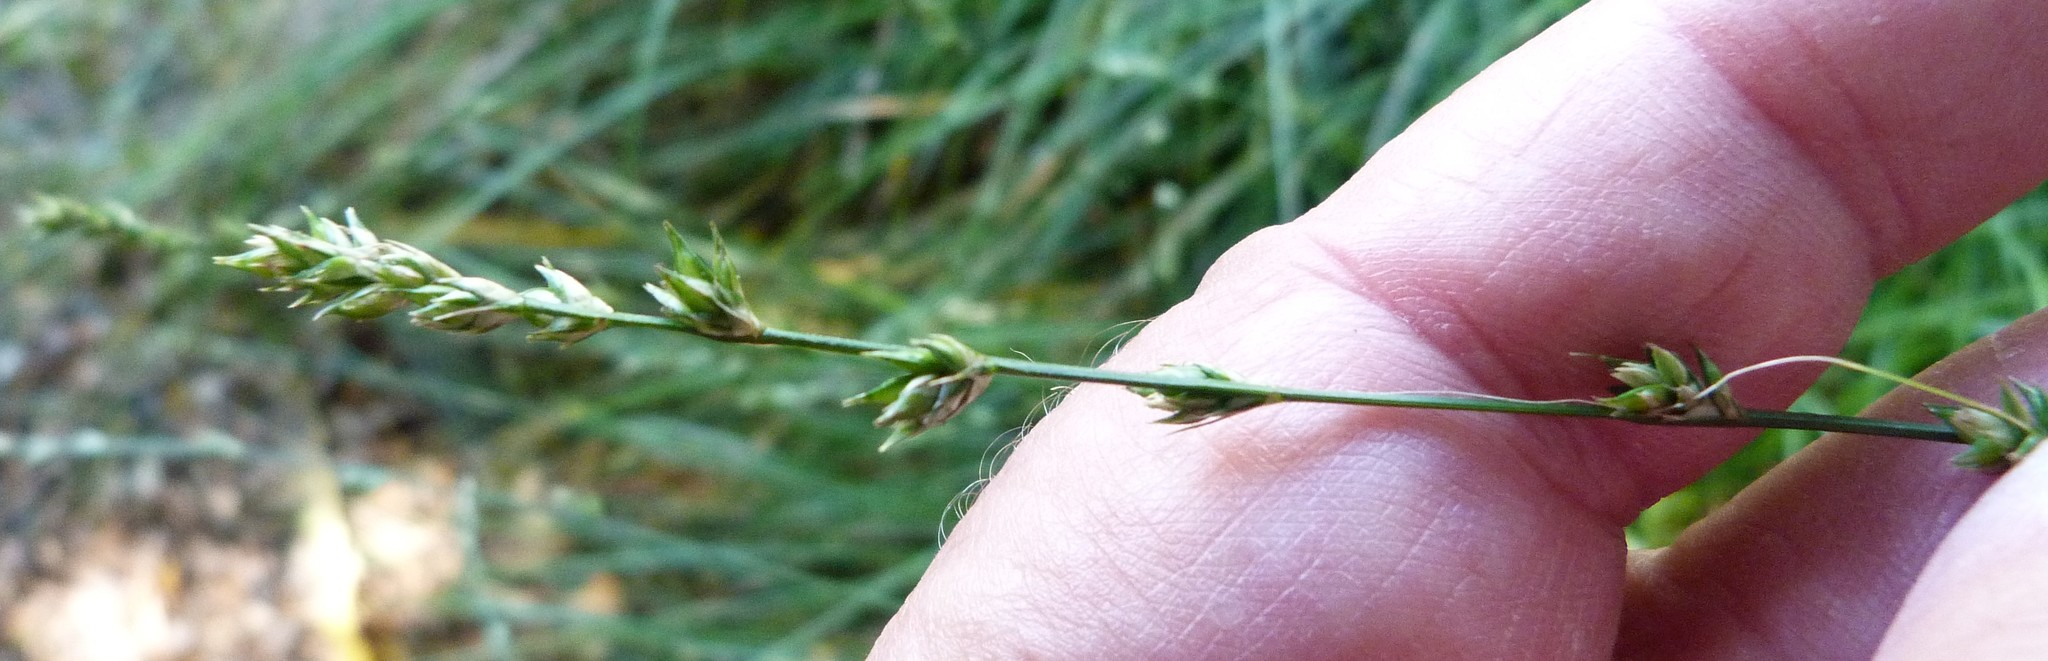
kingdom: Plantae
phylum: Tracheophyta
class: Liliopsida
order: Poales
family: Cyperaceae
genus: Carex
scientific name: Carex divulsa
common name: Grassland sedge
